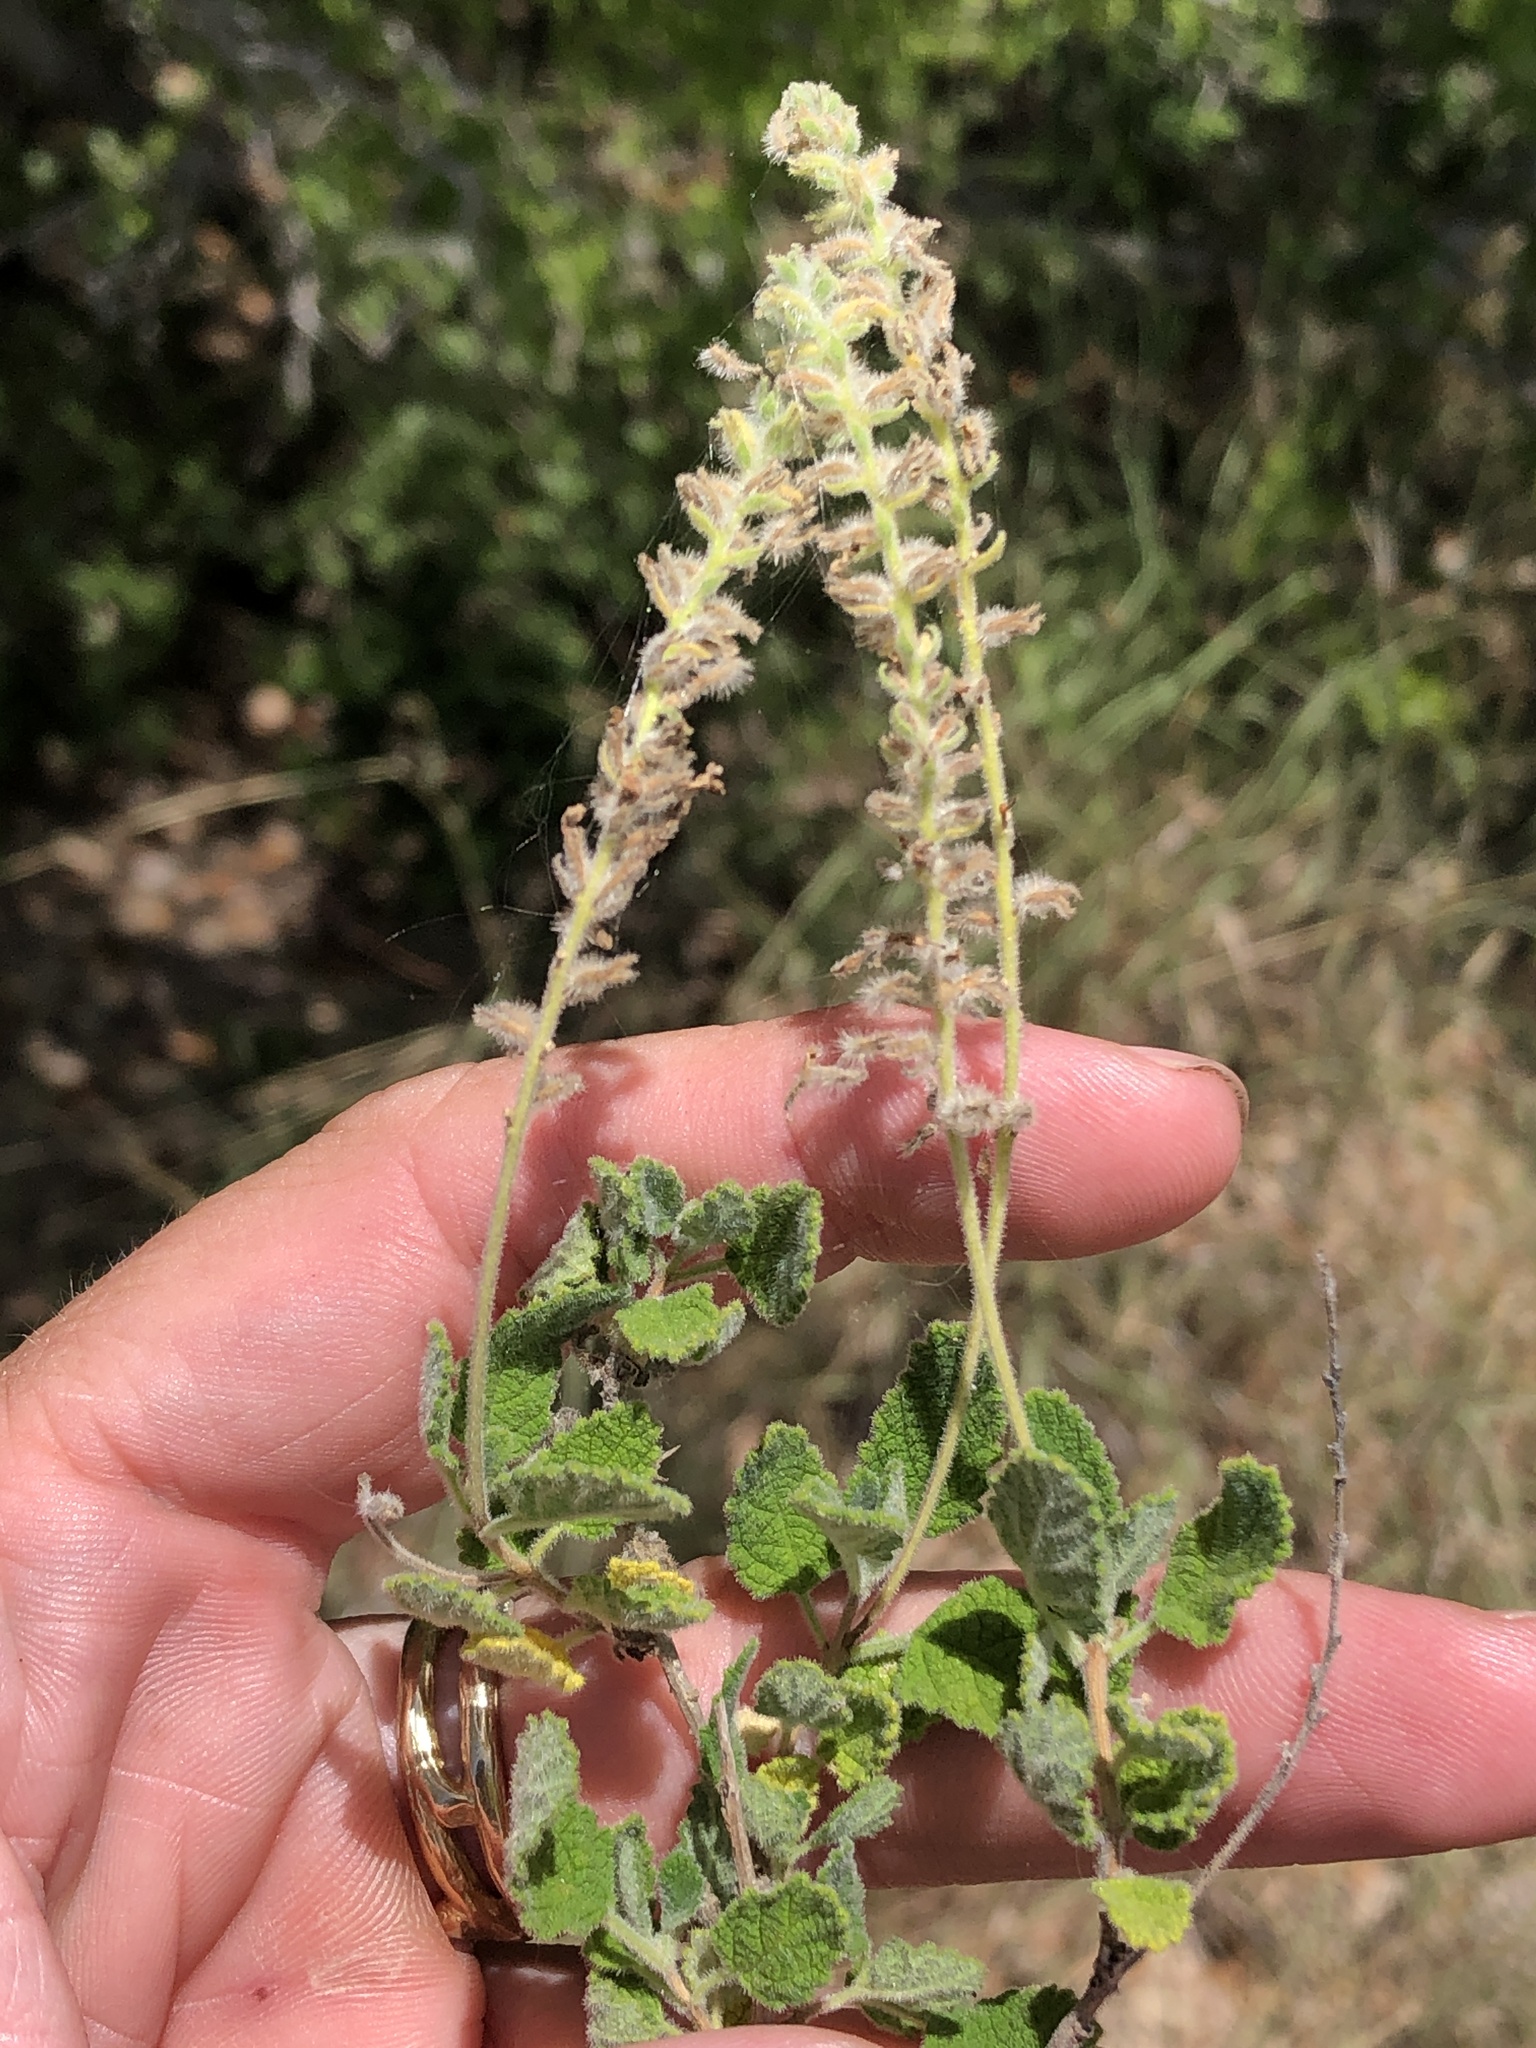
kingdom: Plantae
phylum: Tracheophyta
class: Magnoliopsida
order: Lamiales
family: Verbenaceae
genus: Aloysia
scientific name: Aloysia macrostachya
